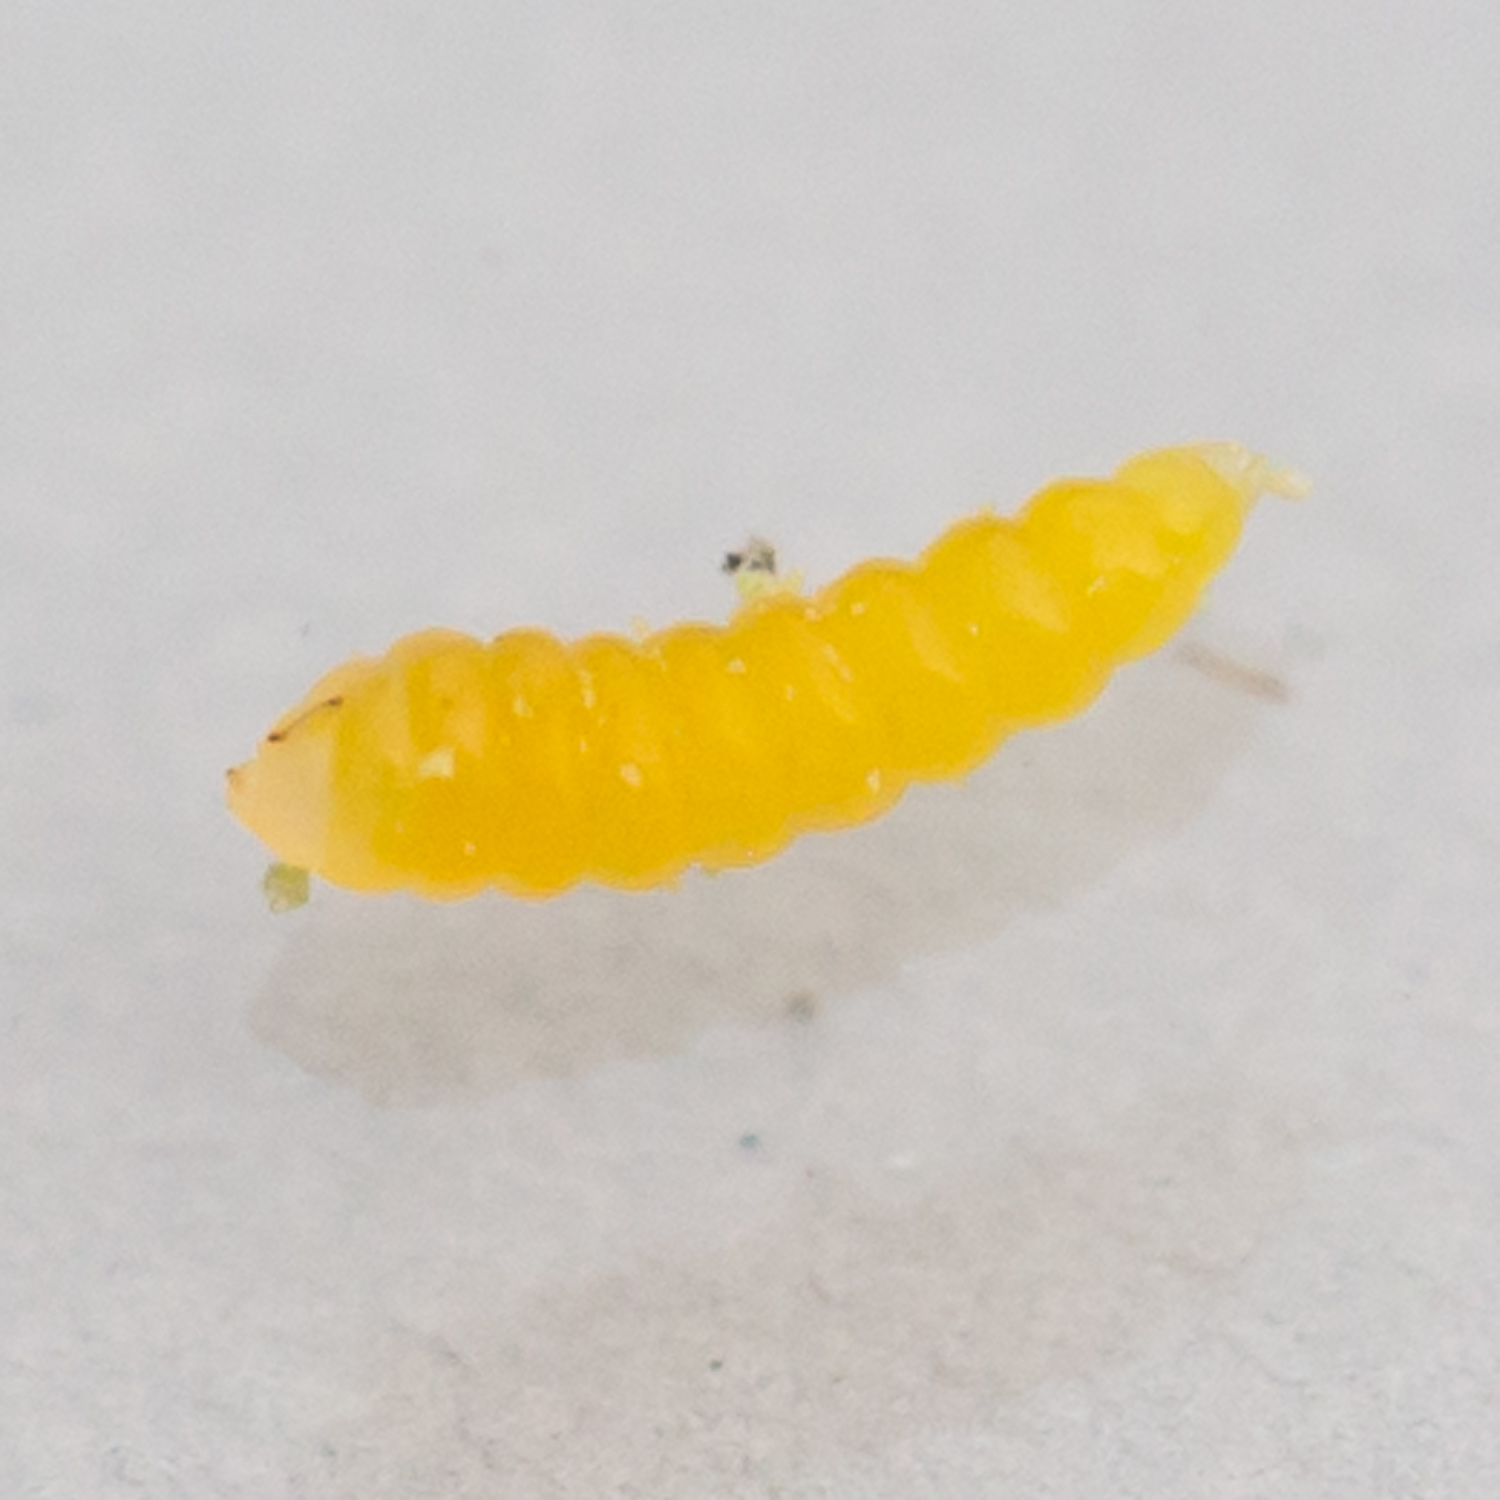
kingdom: Animalia
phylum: Arthropoda
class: Insecta
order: Diptera
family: Cecidomyiidae
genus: Monarthropalpus
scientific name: Monarthropalpus flavus
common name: Boxwood leafminer
